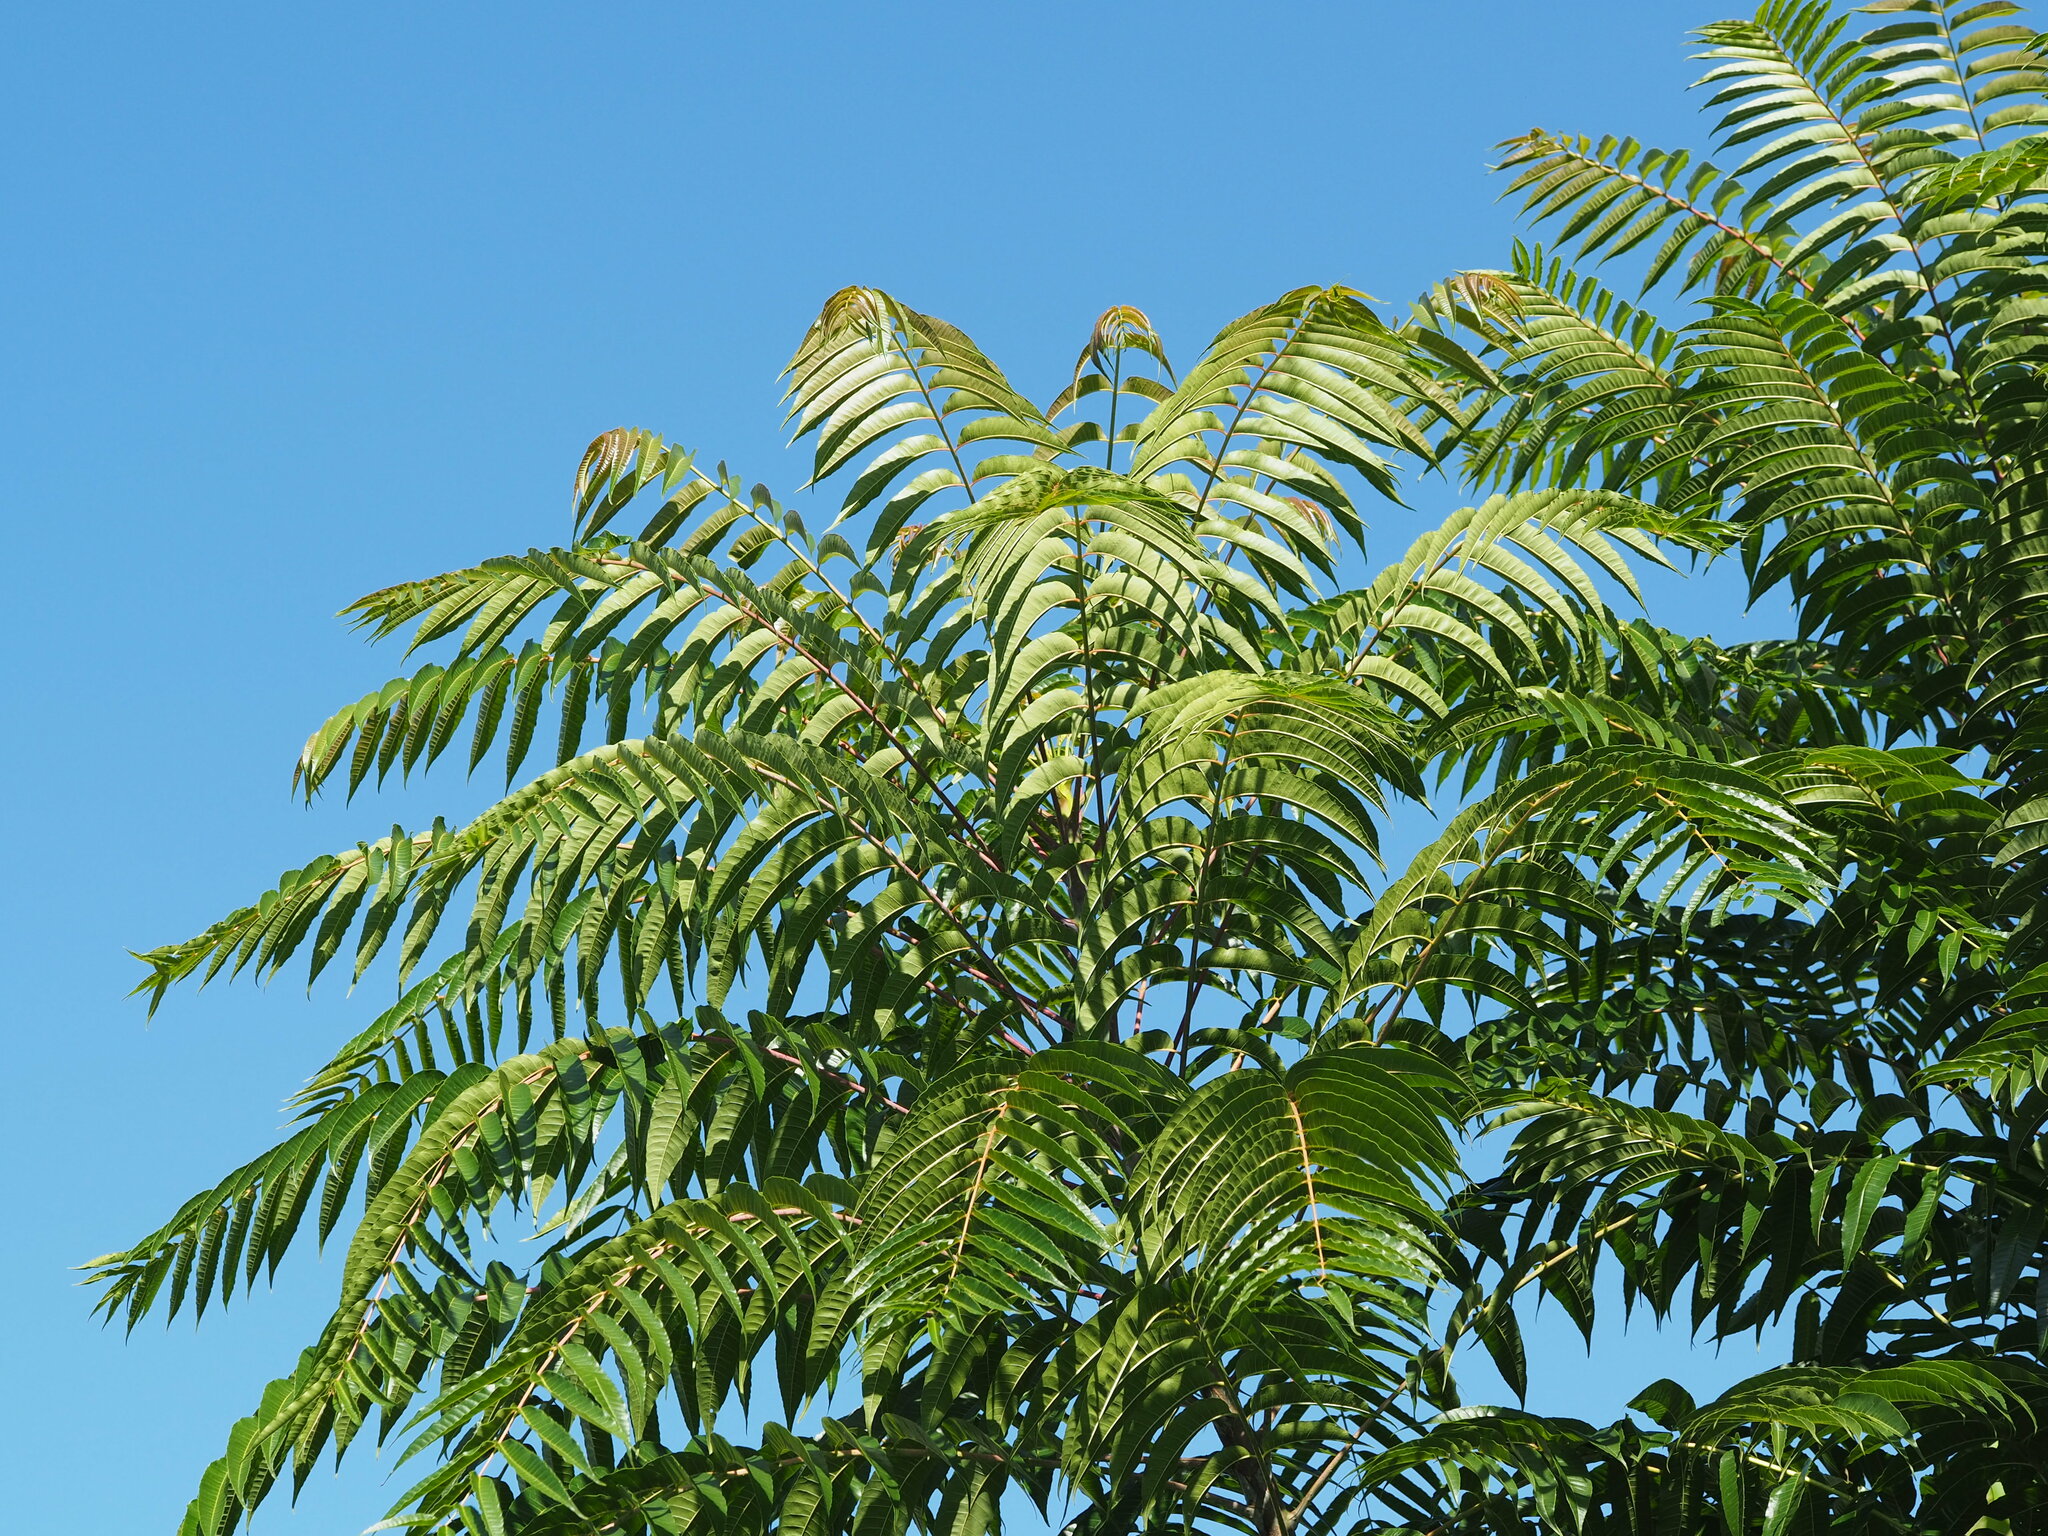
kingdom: Plantae
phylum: Tracheophyta
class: Magnoliopsida
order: Sapindales
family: Meliaceae
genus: Toona
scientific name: Toona sinensis
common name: Red toon
